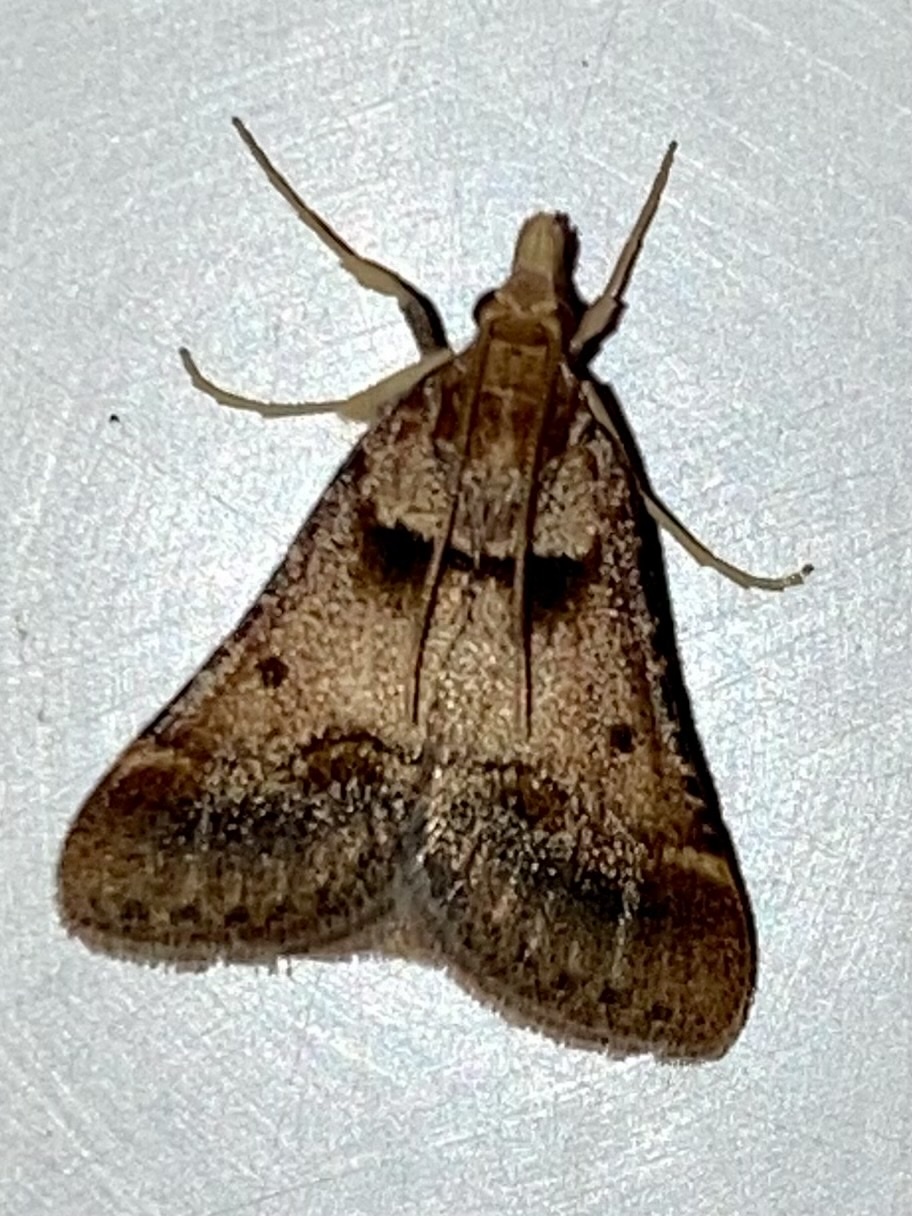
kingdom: Animalia
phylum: Arthropoda
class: Insecta
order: Lepidoptera
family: Pyralidae
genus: Stemmatophora
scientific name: Stemmatophora brunnealis
